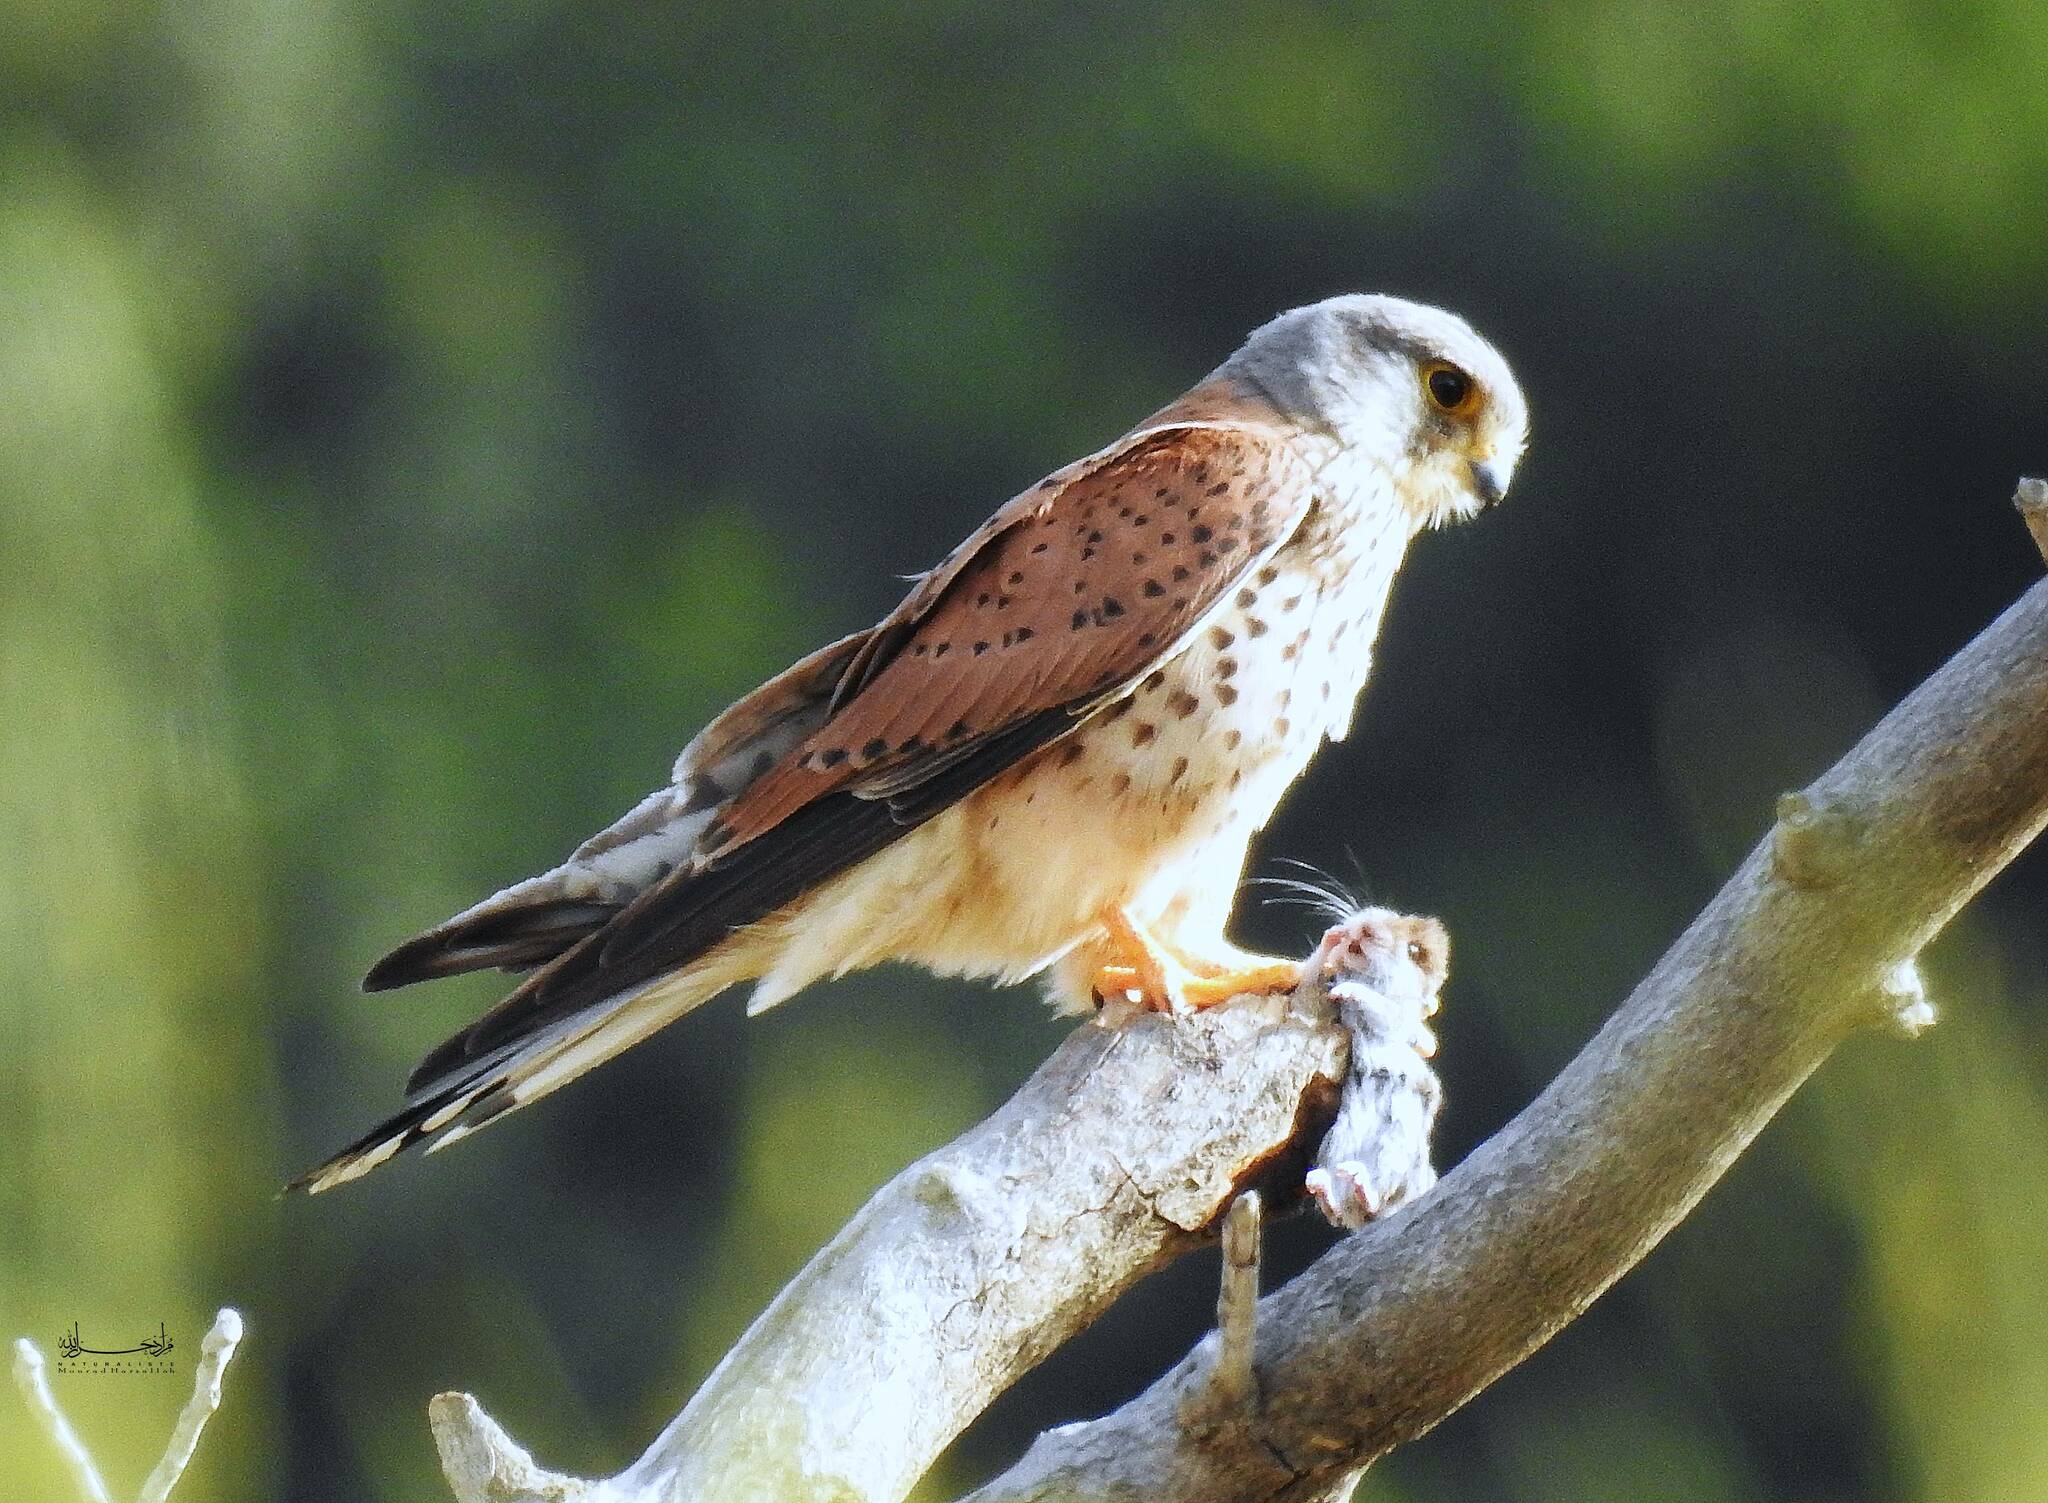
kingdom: Animalia
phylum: Chordata
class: Aves
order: Falconiformes
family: Falconidae
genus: Falco
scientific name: Falco tinnunculus
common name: Common kestrel
